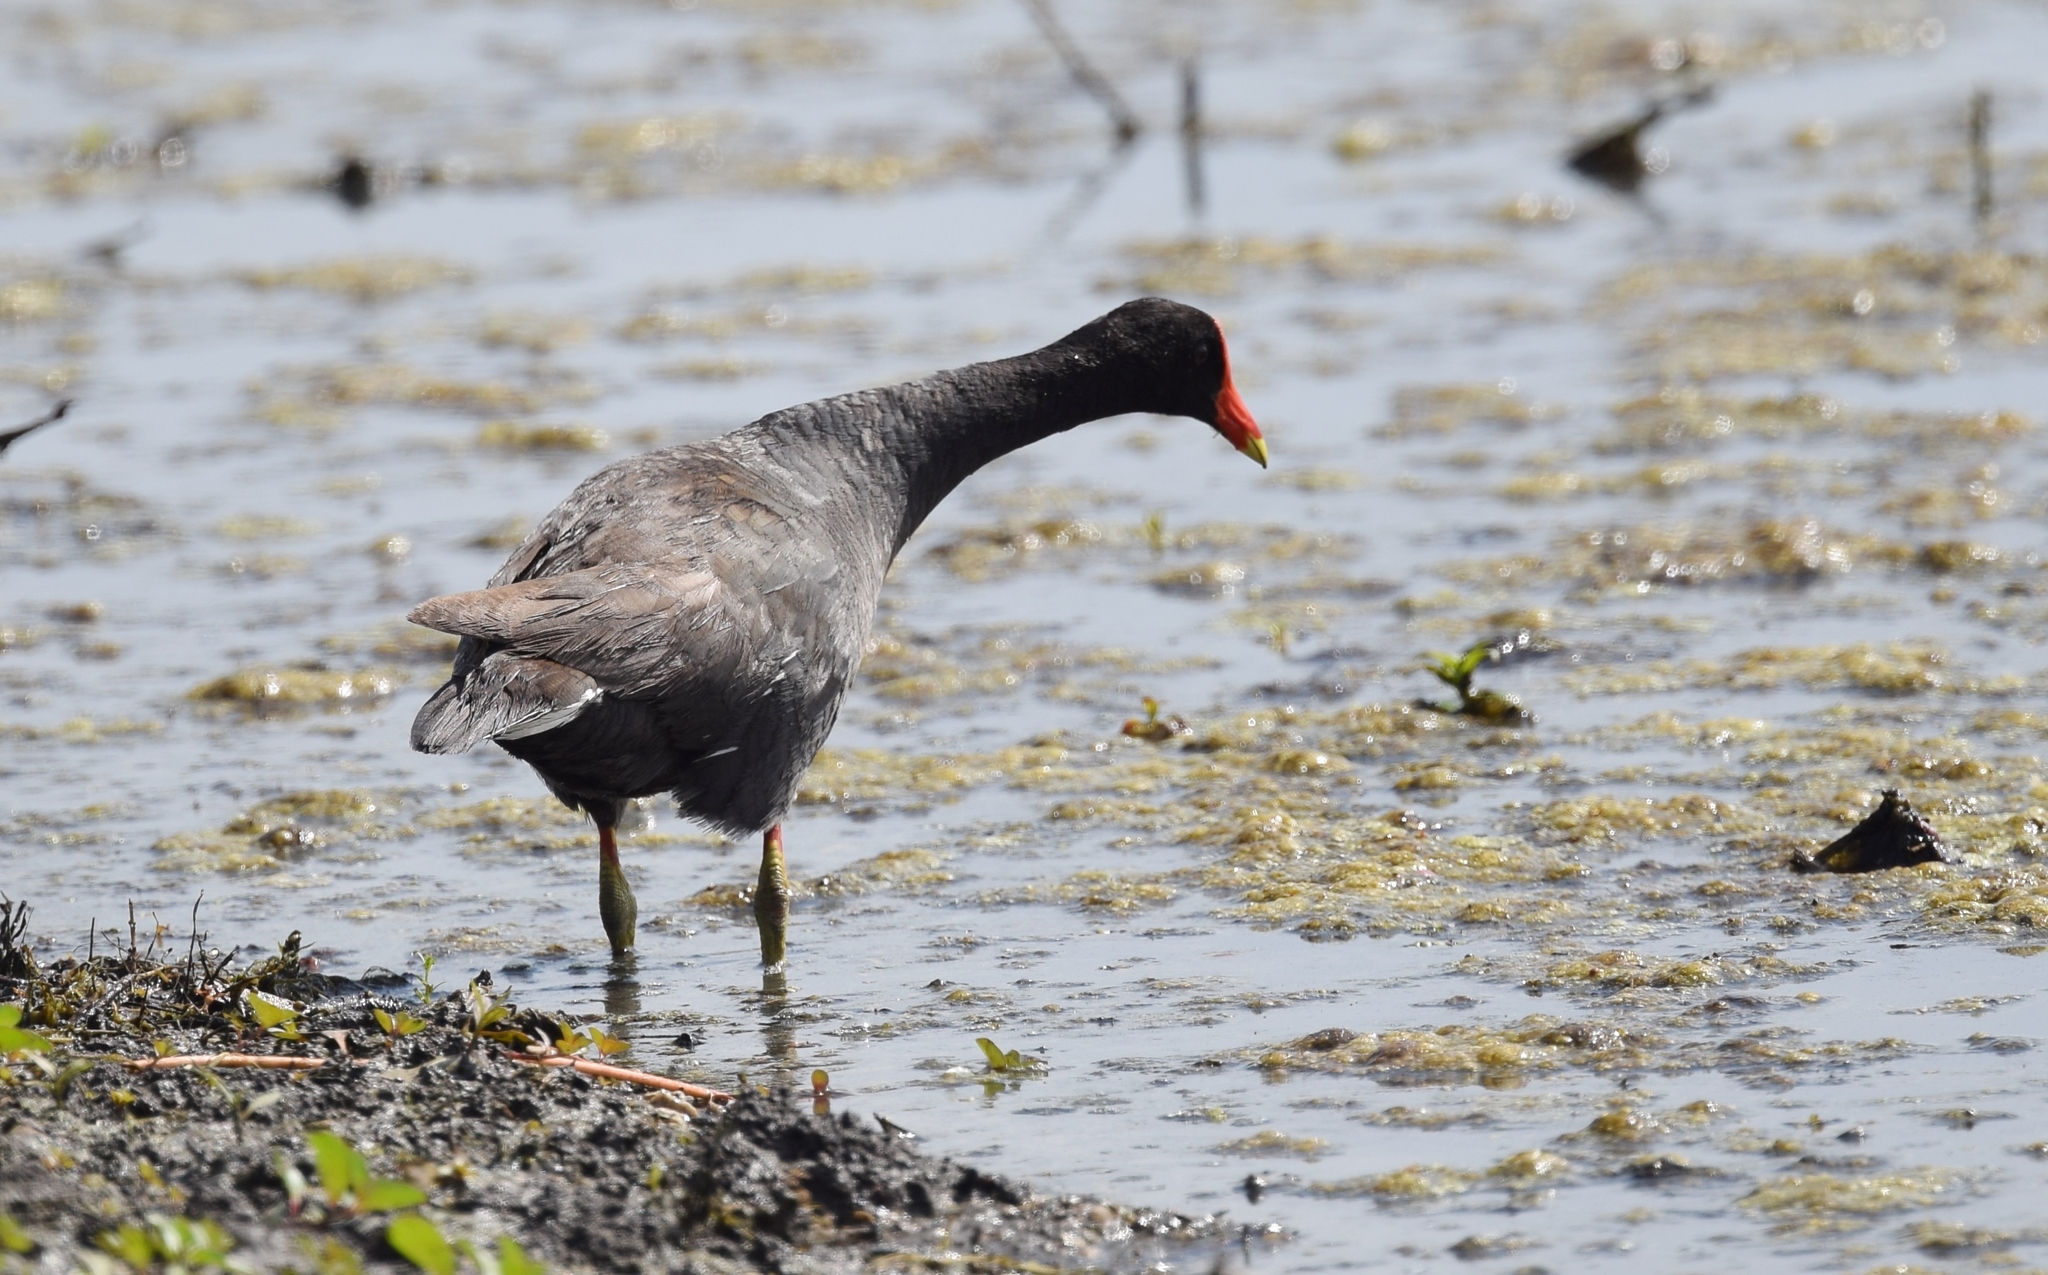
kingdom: Animalia
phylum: Chordata
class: Aves
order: Gruiformes
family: Rallidae
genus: Gallinula
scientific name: Gallinula chloropus
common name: Common moorhen
